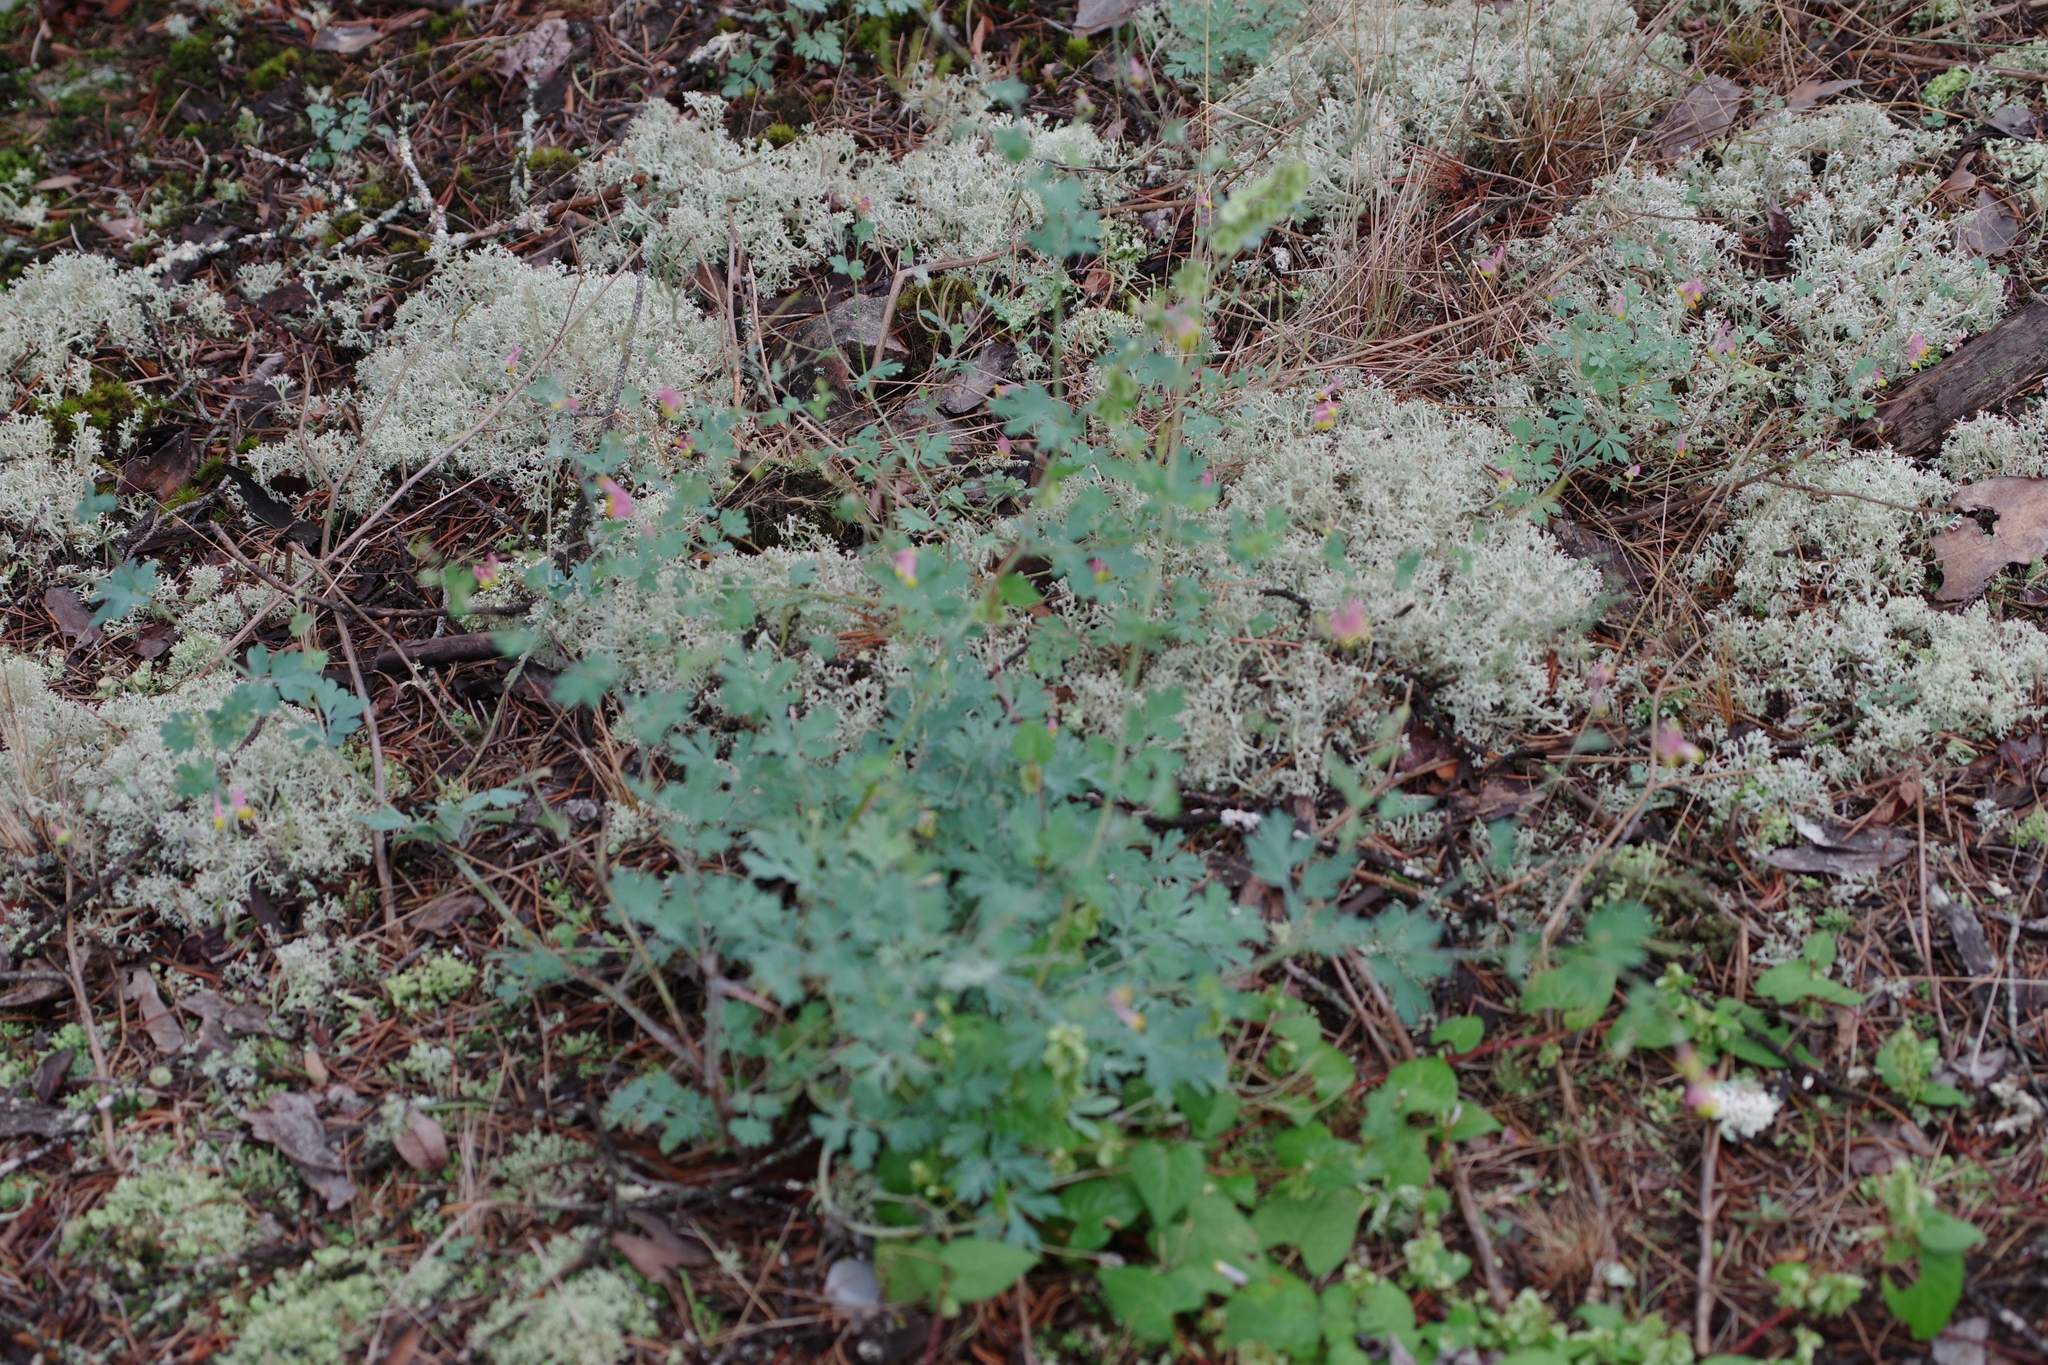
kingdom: Plantae
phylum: Tracheophyta
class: Magnoliopsida
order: Ranunculales
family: Papaveraceae
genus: Capnoides
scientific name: Capnoides sempervirens
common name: Rock harlequin
